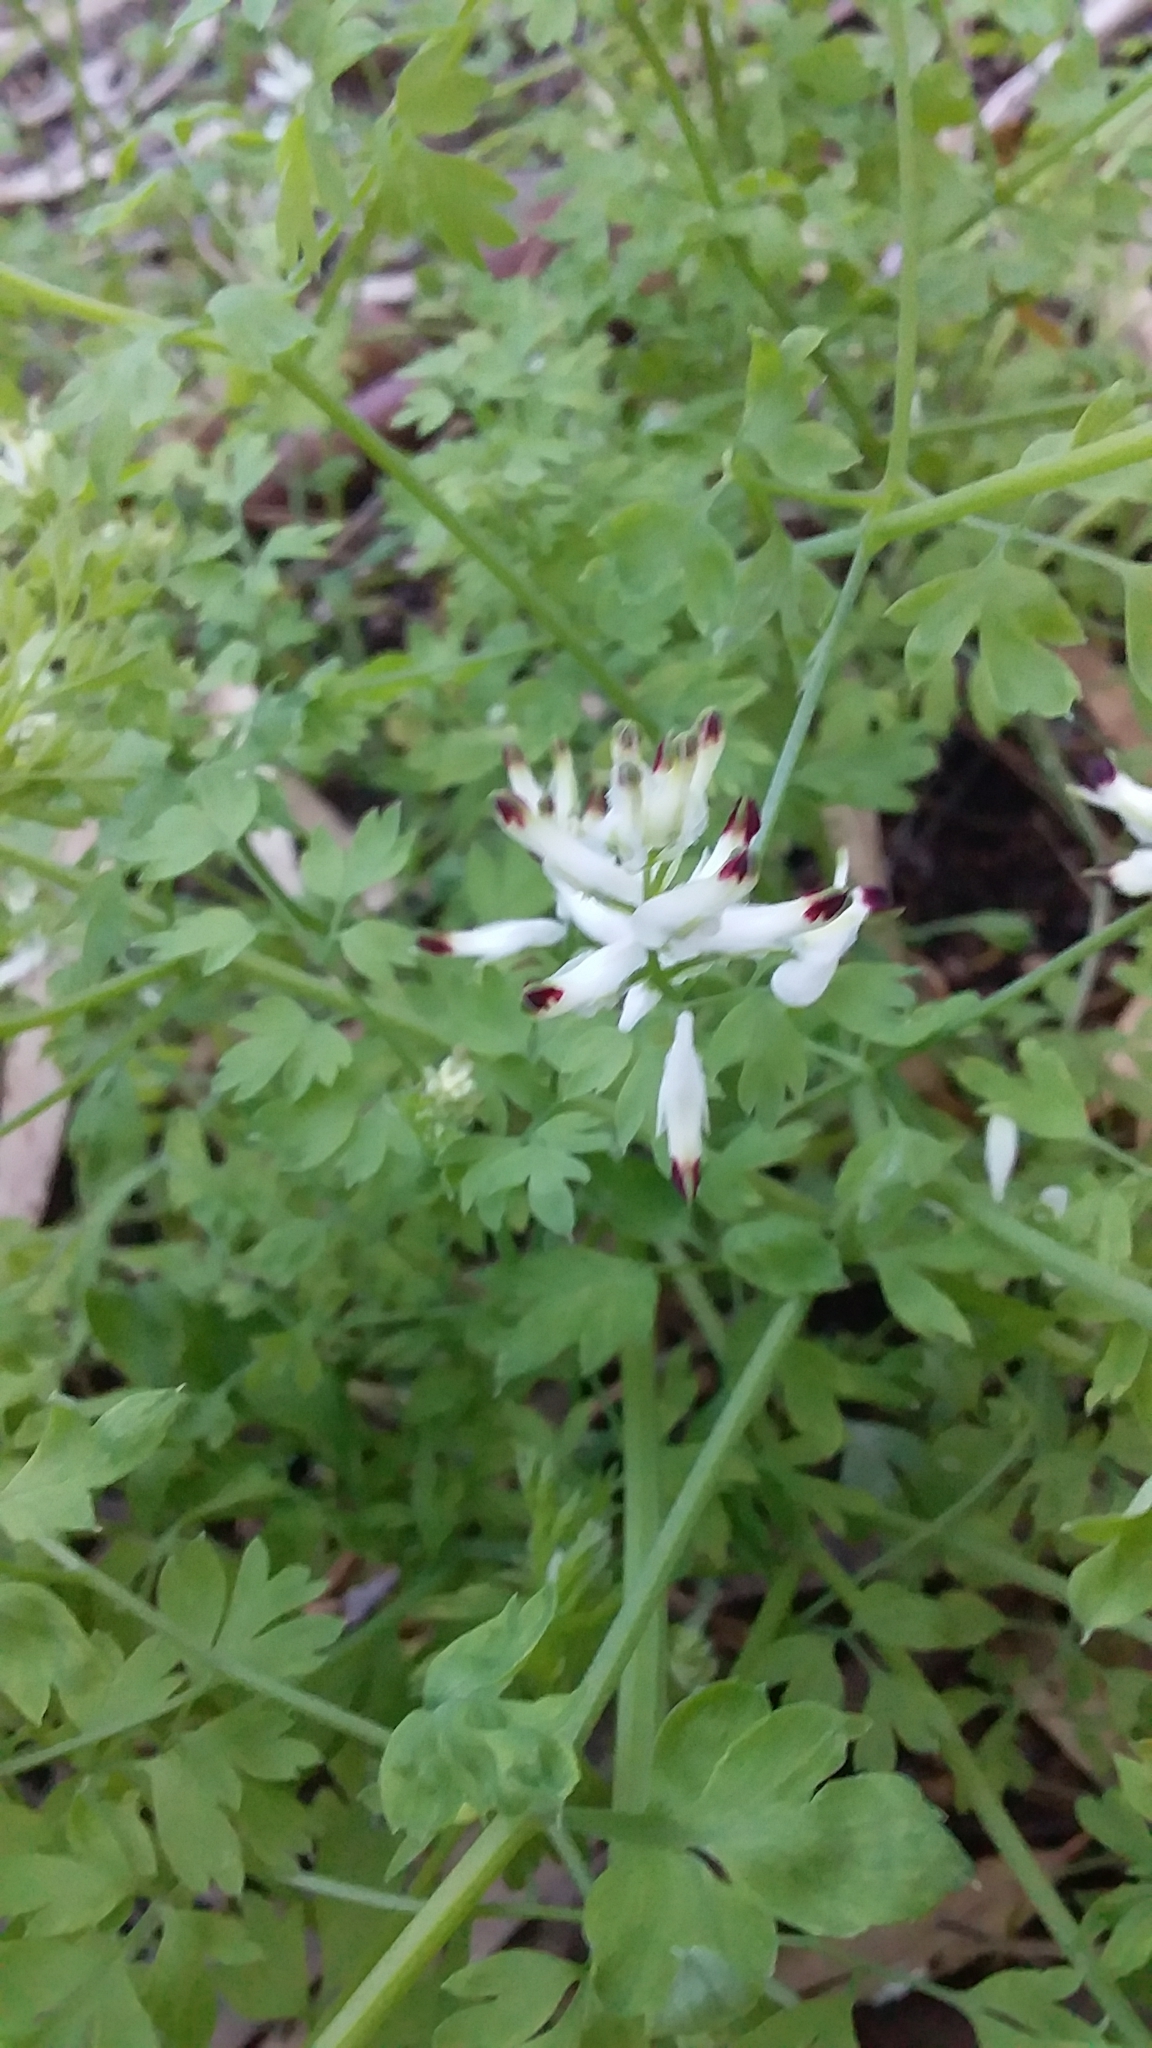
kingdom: Plantae
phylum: Tracheophyta
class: Magnoliopsida
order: Ranunculales
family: Papaveraceae
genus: Fumaria
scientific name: Fumaria capreolata
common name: White ramping-fumitory
